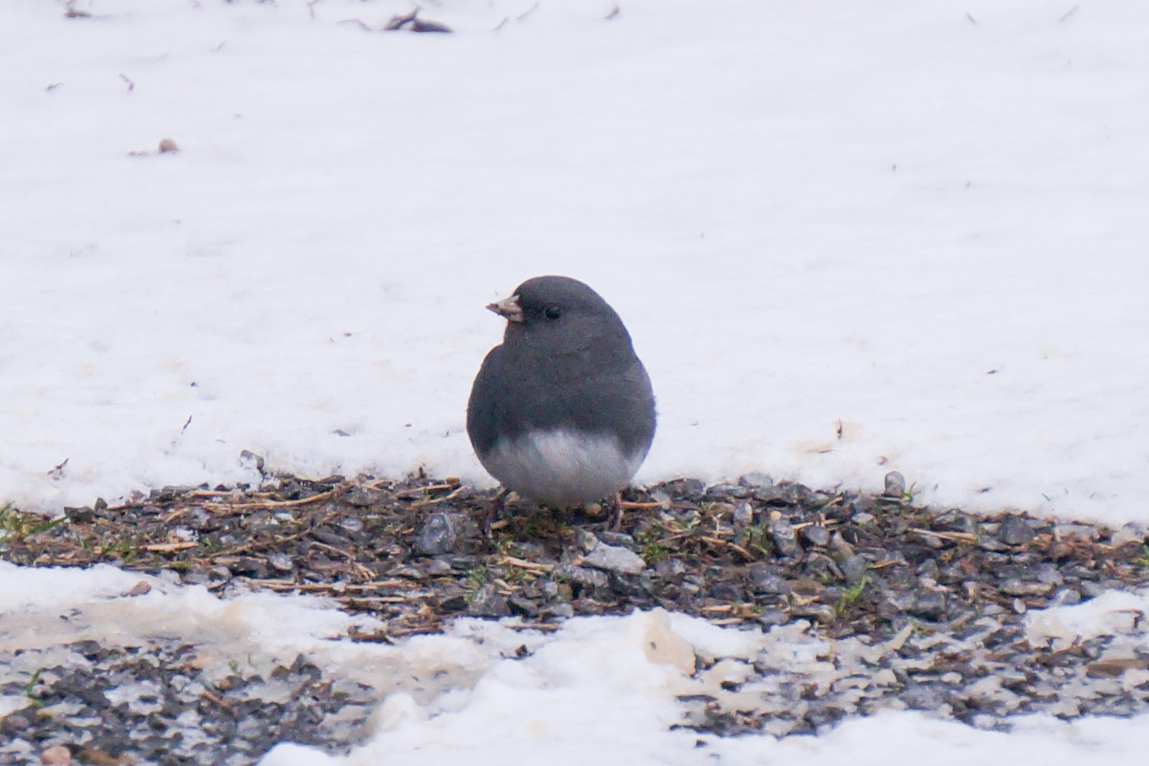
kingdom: Animalia
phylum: Chordata
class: Aves
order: Passeriformes
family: Passerellidae
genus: Junco
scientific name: Junco hyemalis
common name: Dark-eyed junco
